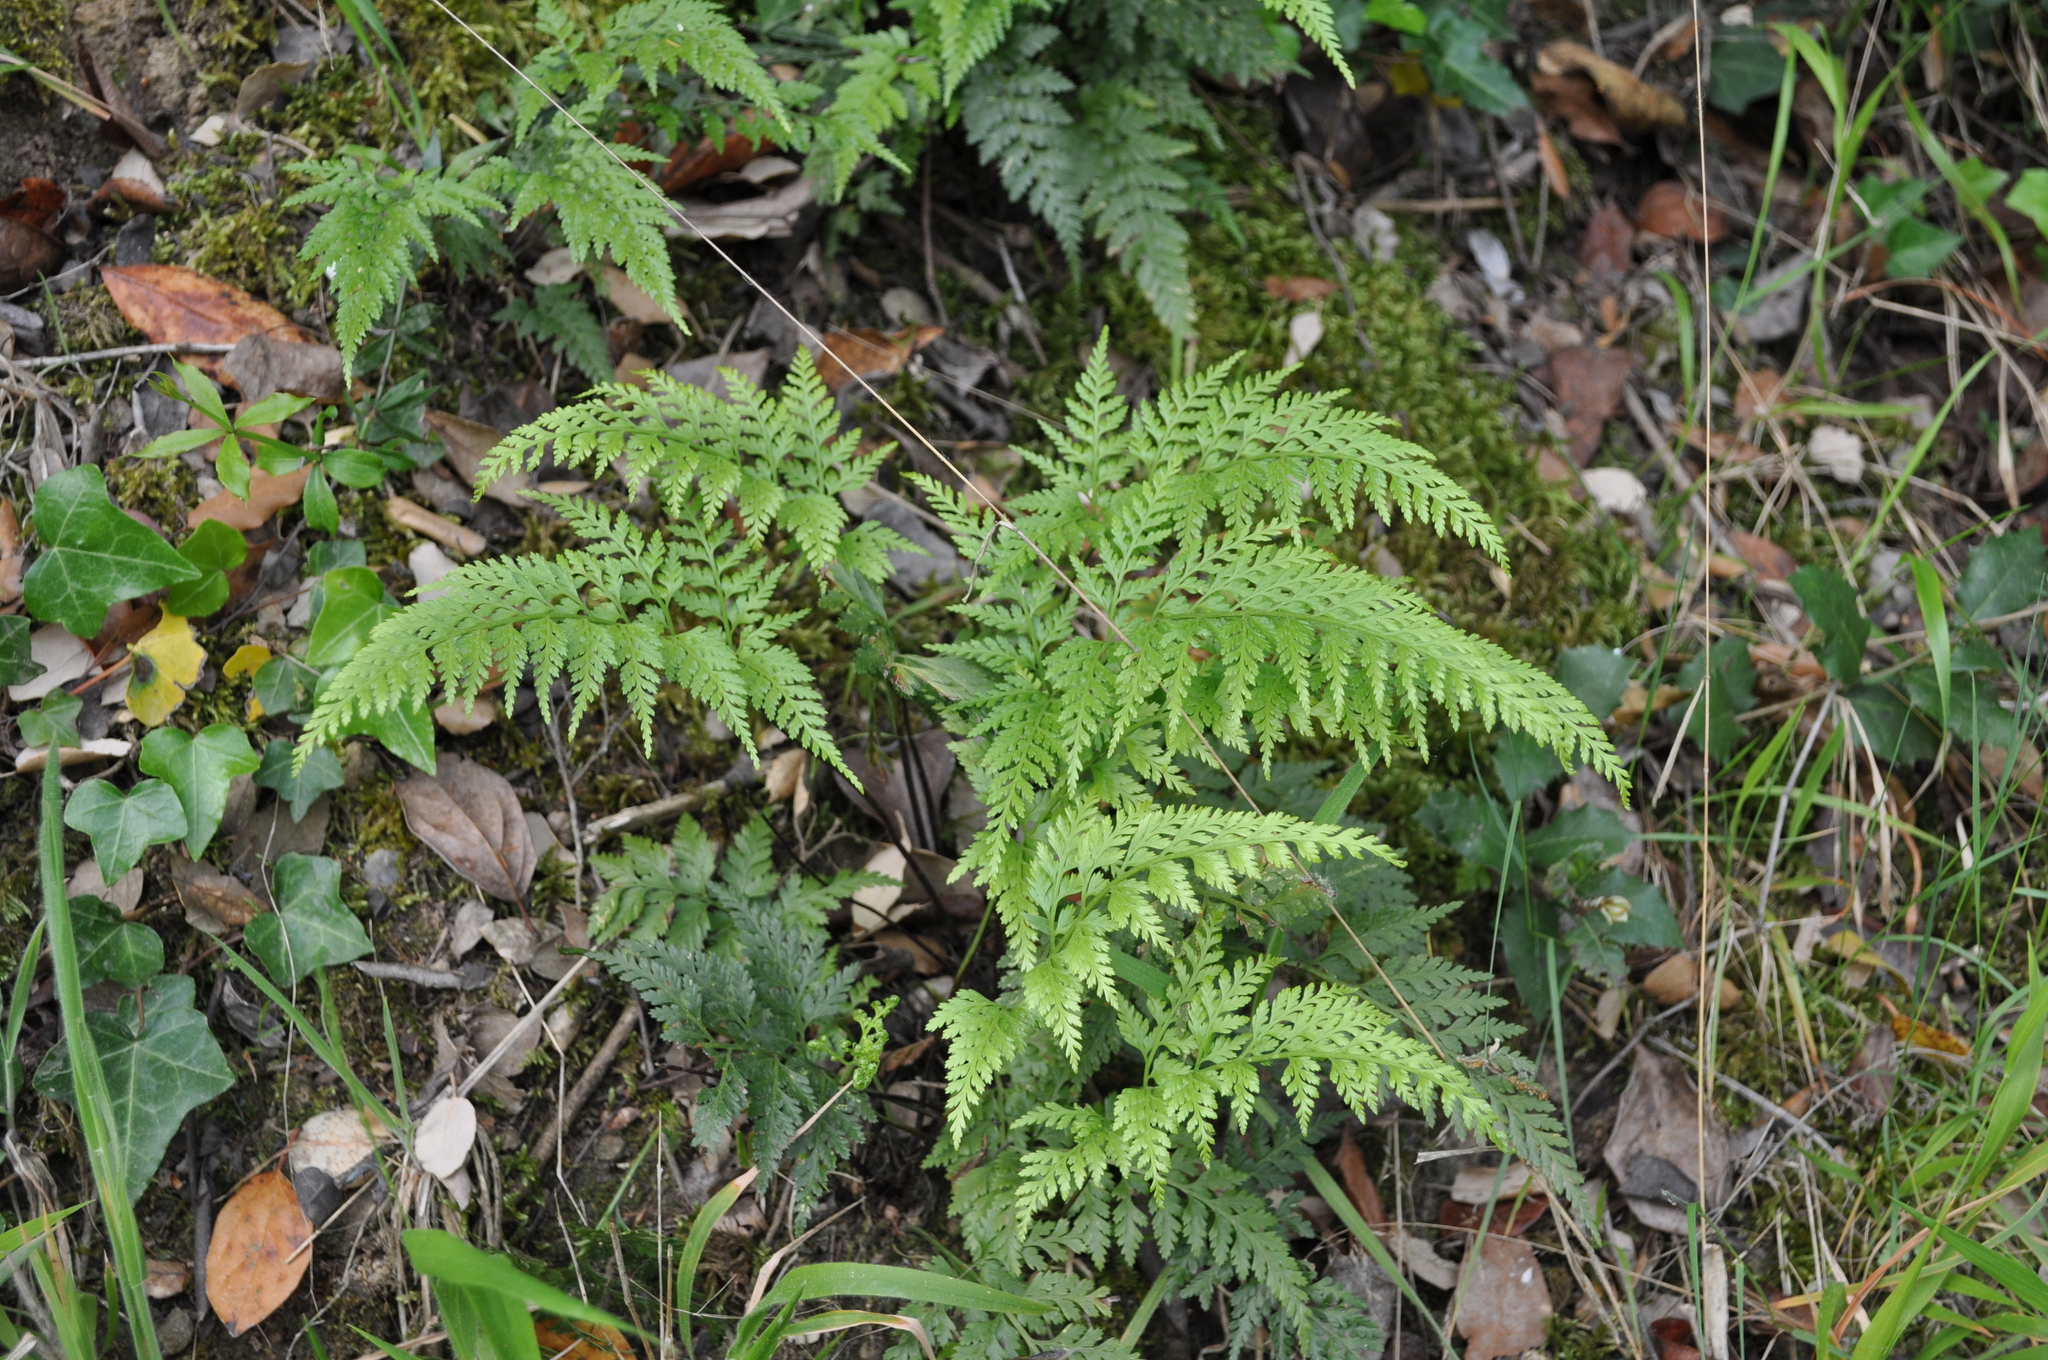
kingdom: Plantae
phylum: Tracheophyta
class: Polypodiopsida
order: Polypodiales
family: Aspleniaceae
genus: Asplenium
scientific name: Asplenium onopteris
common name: Irish spleenwort
